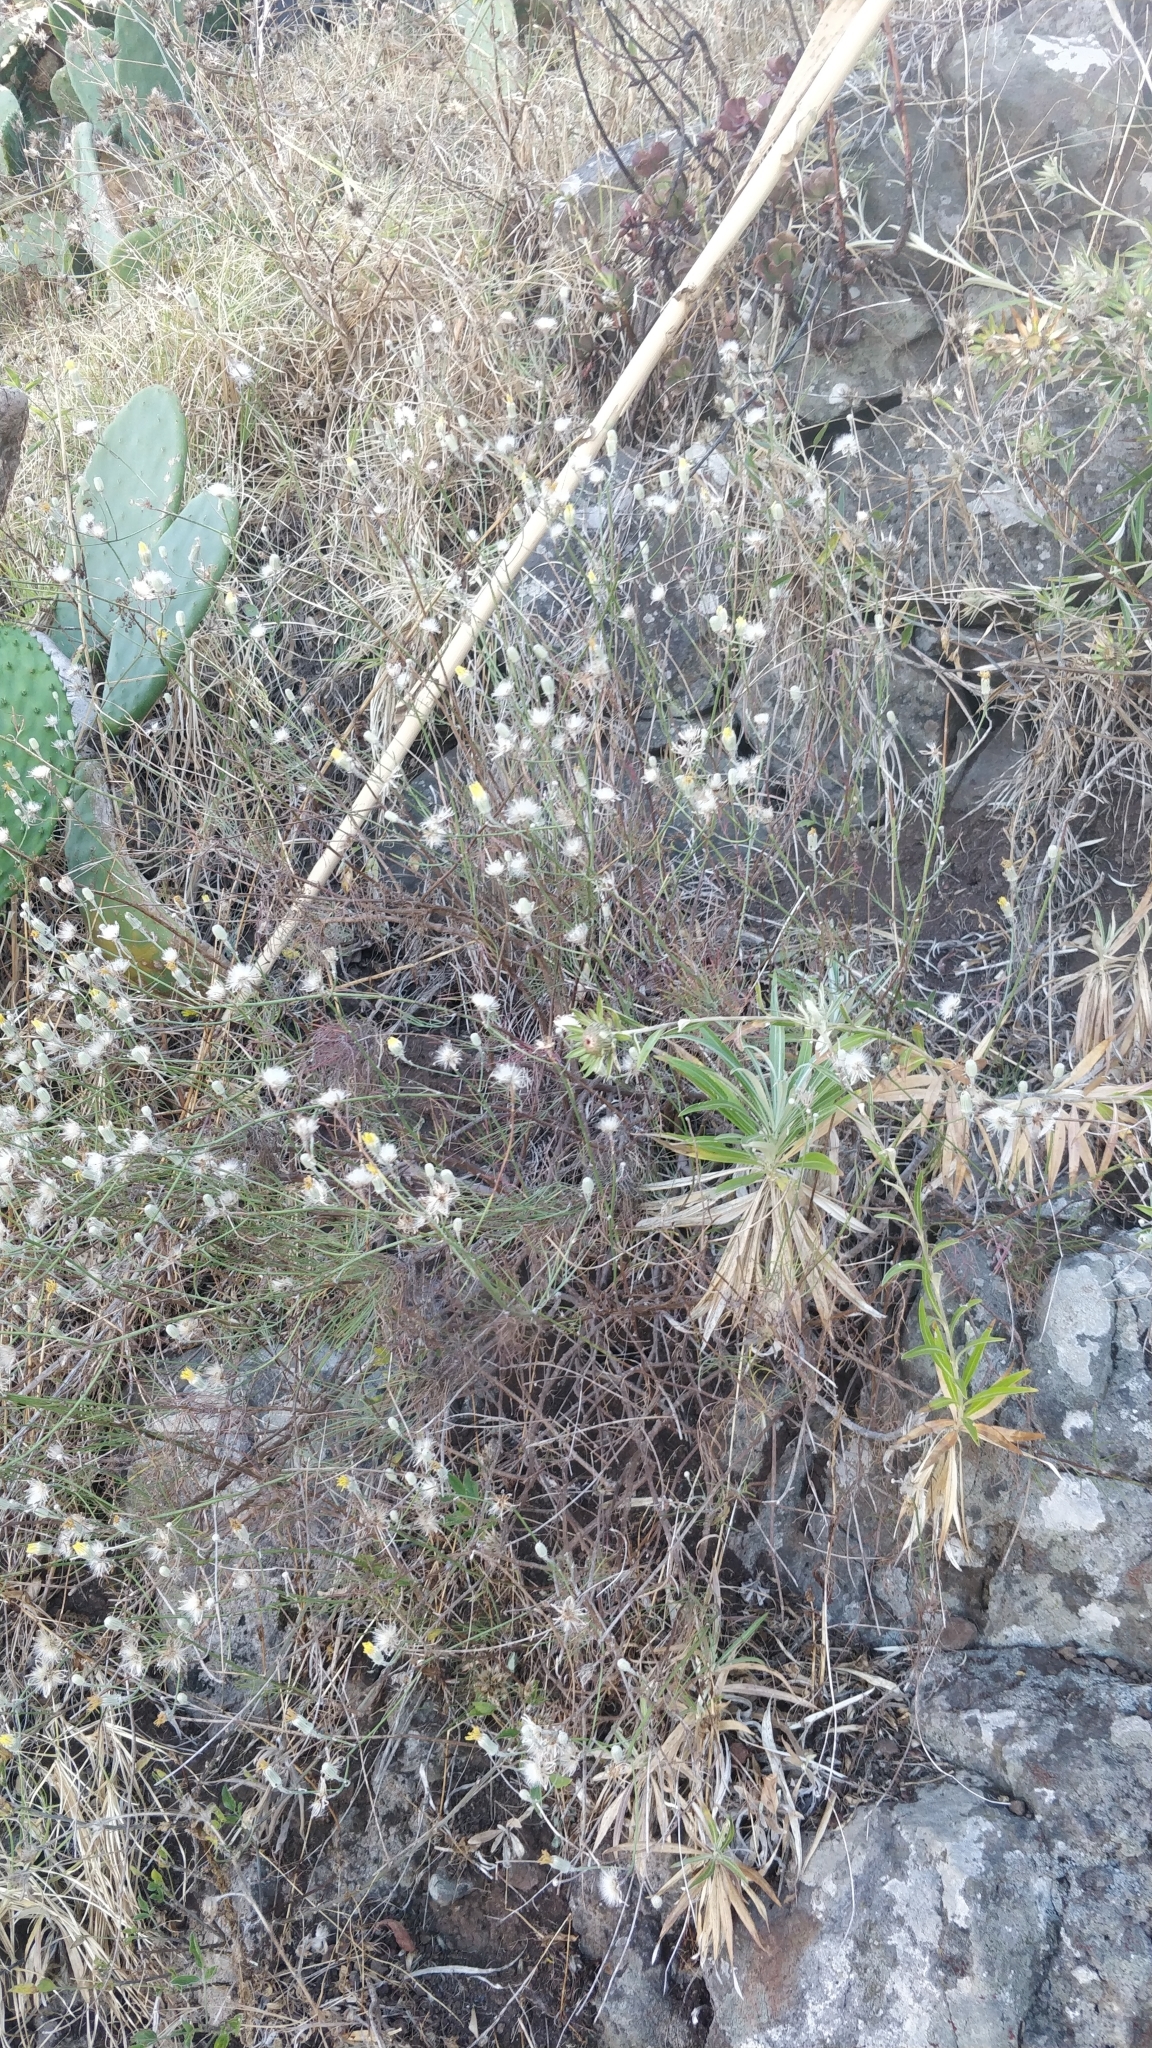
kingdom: Plantae
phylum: Tracheophyta
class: Magnoliopsida
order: Asterales
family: Asteraceae
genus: Tolpis
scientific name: Tolpis succulenta
